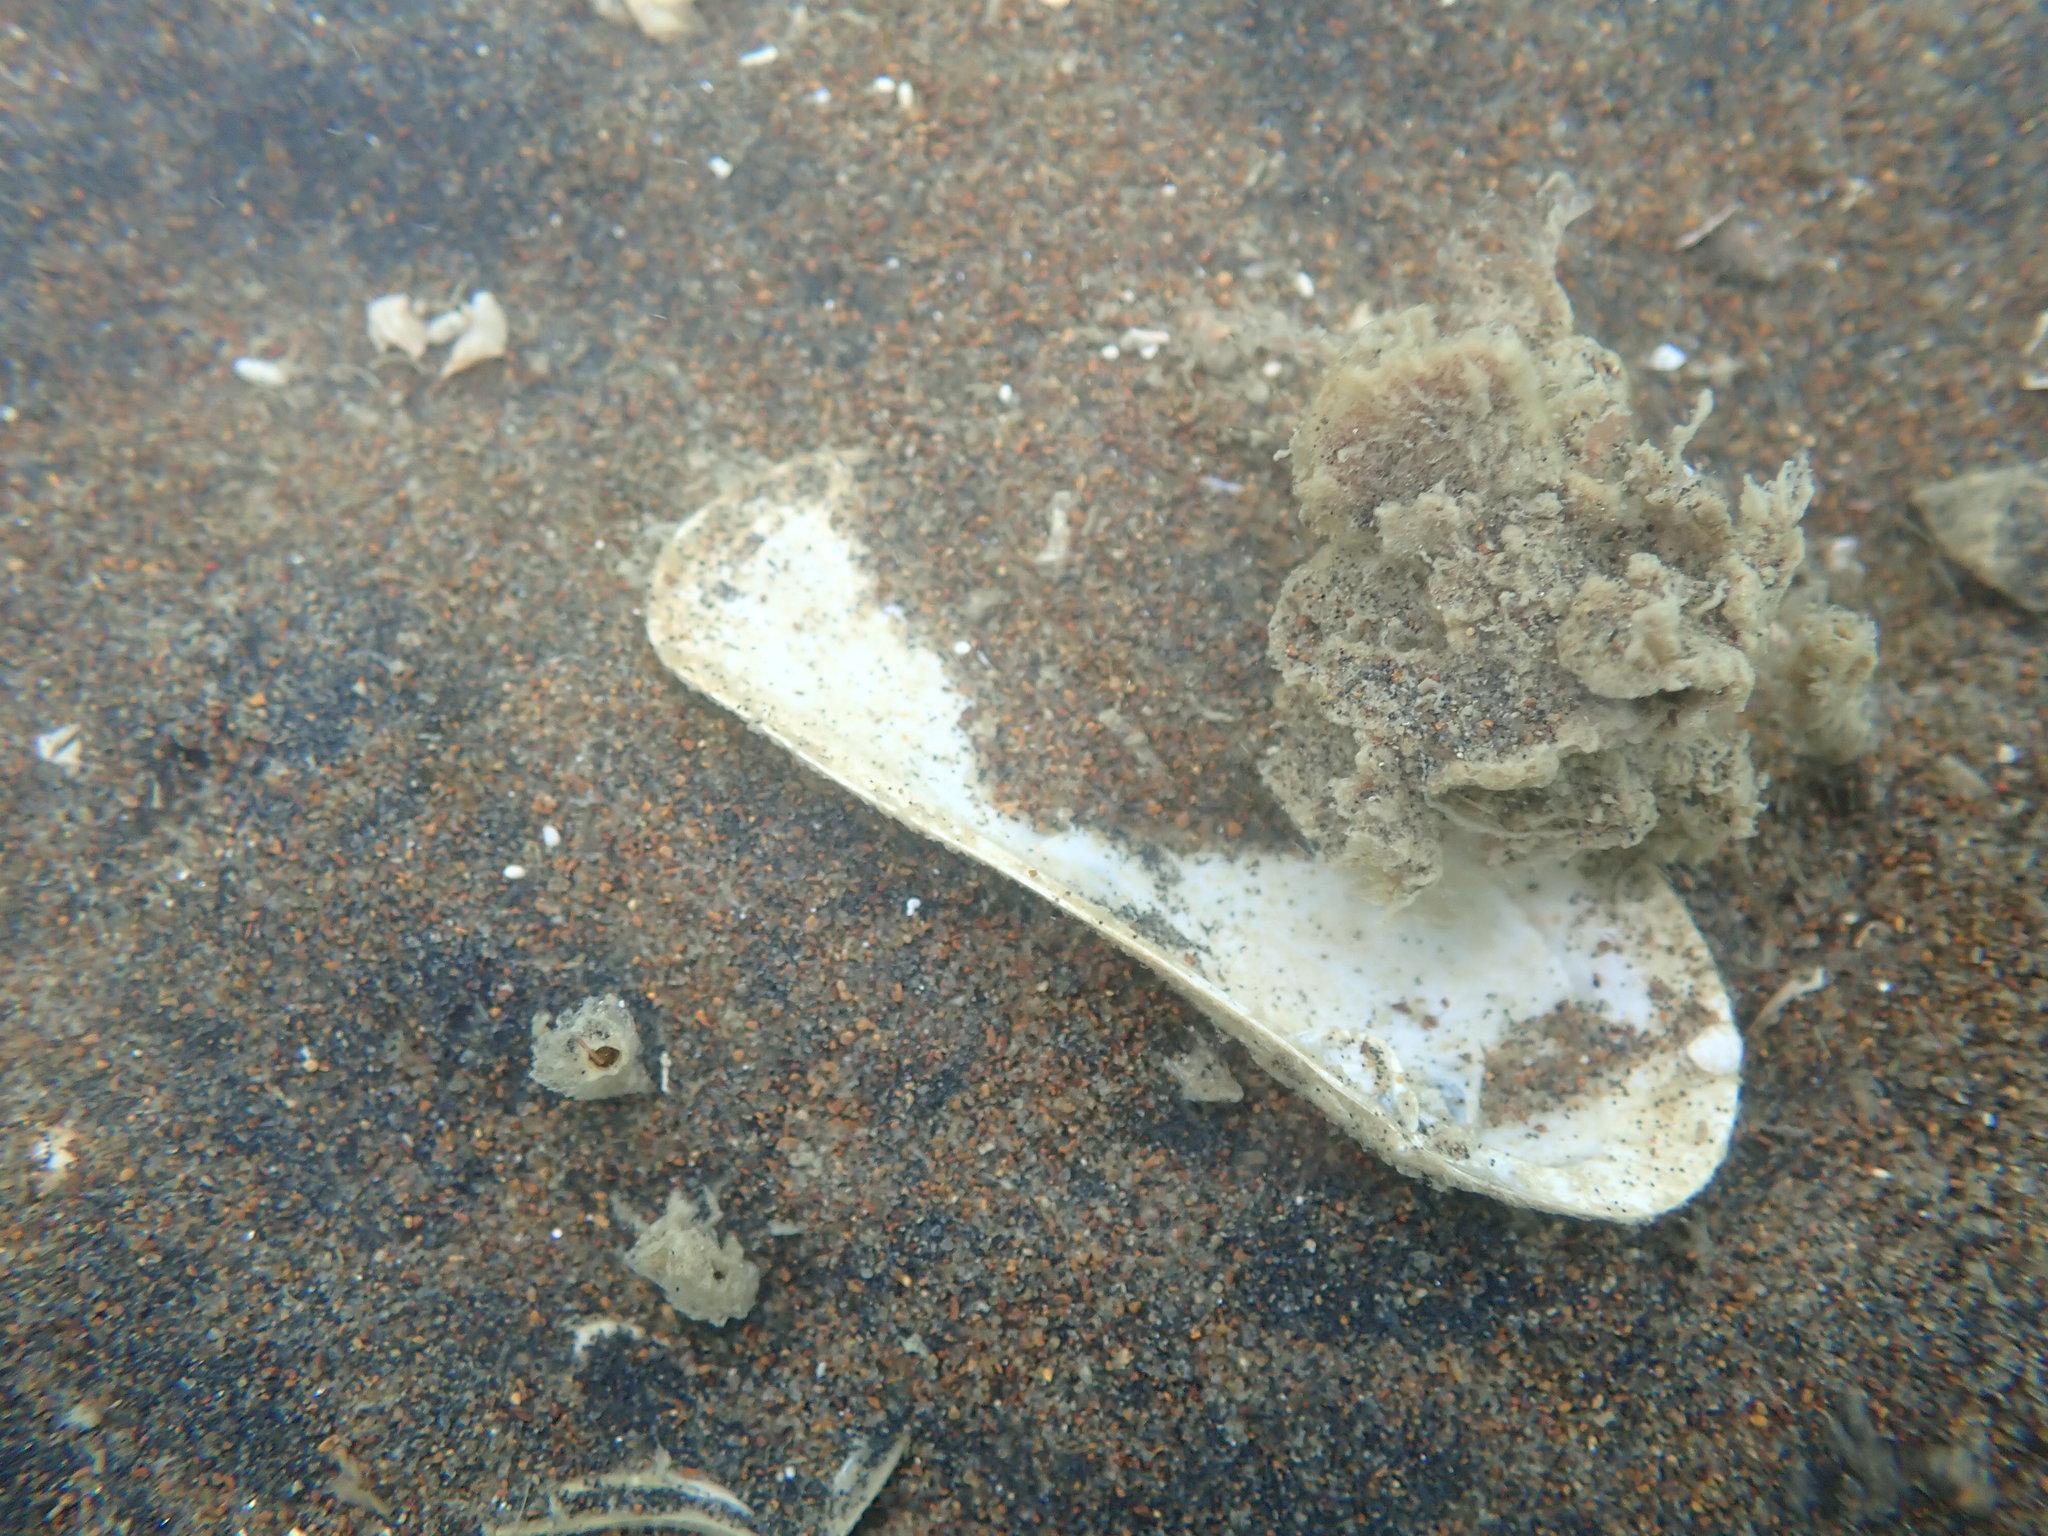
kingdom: Animalia
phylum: Mollusca
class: Bivalvia
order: Venerida
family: Mactridae
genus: Zenatia
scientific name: Zenatia acinaces
